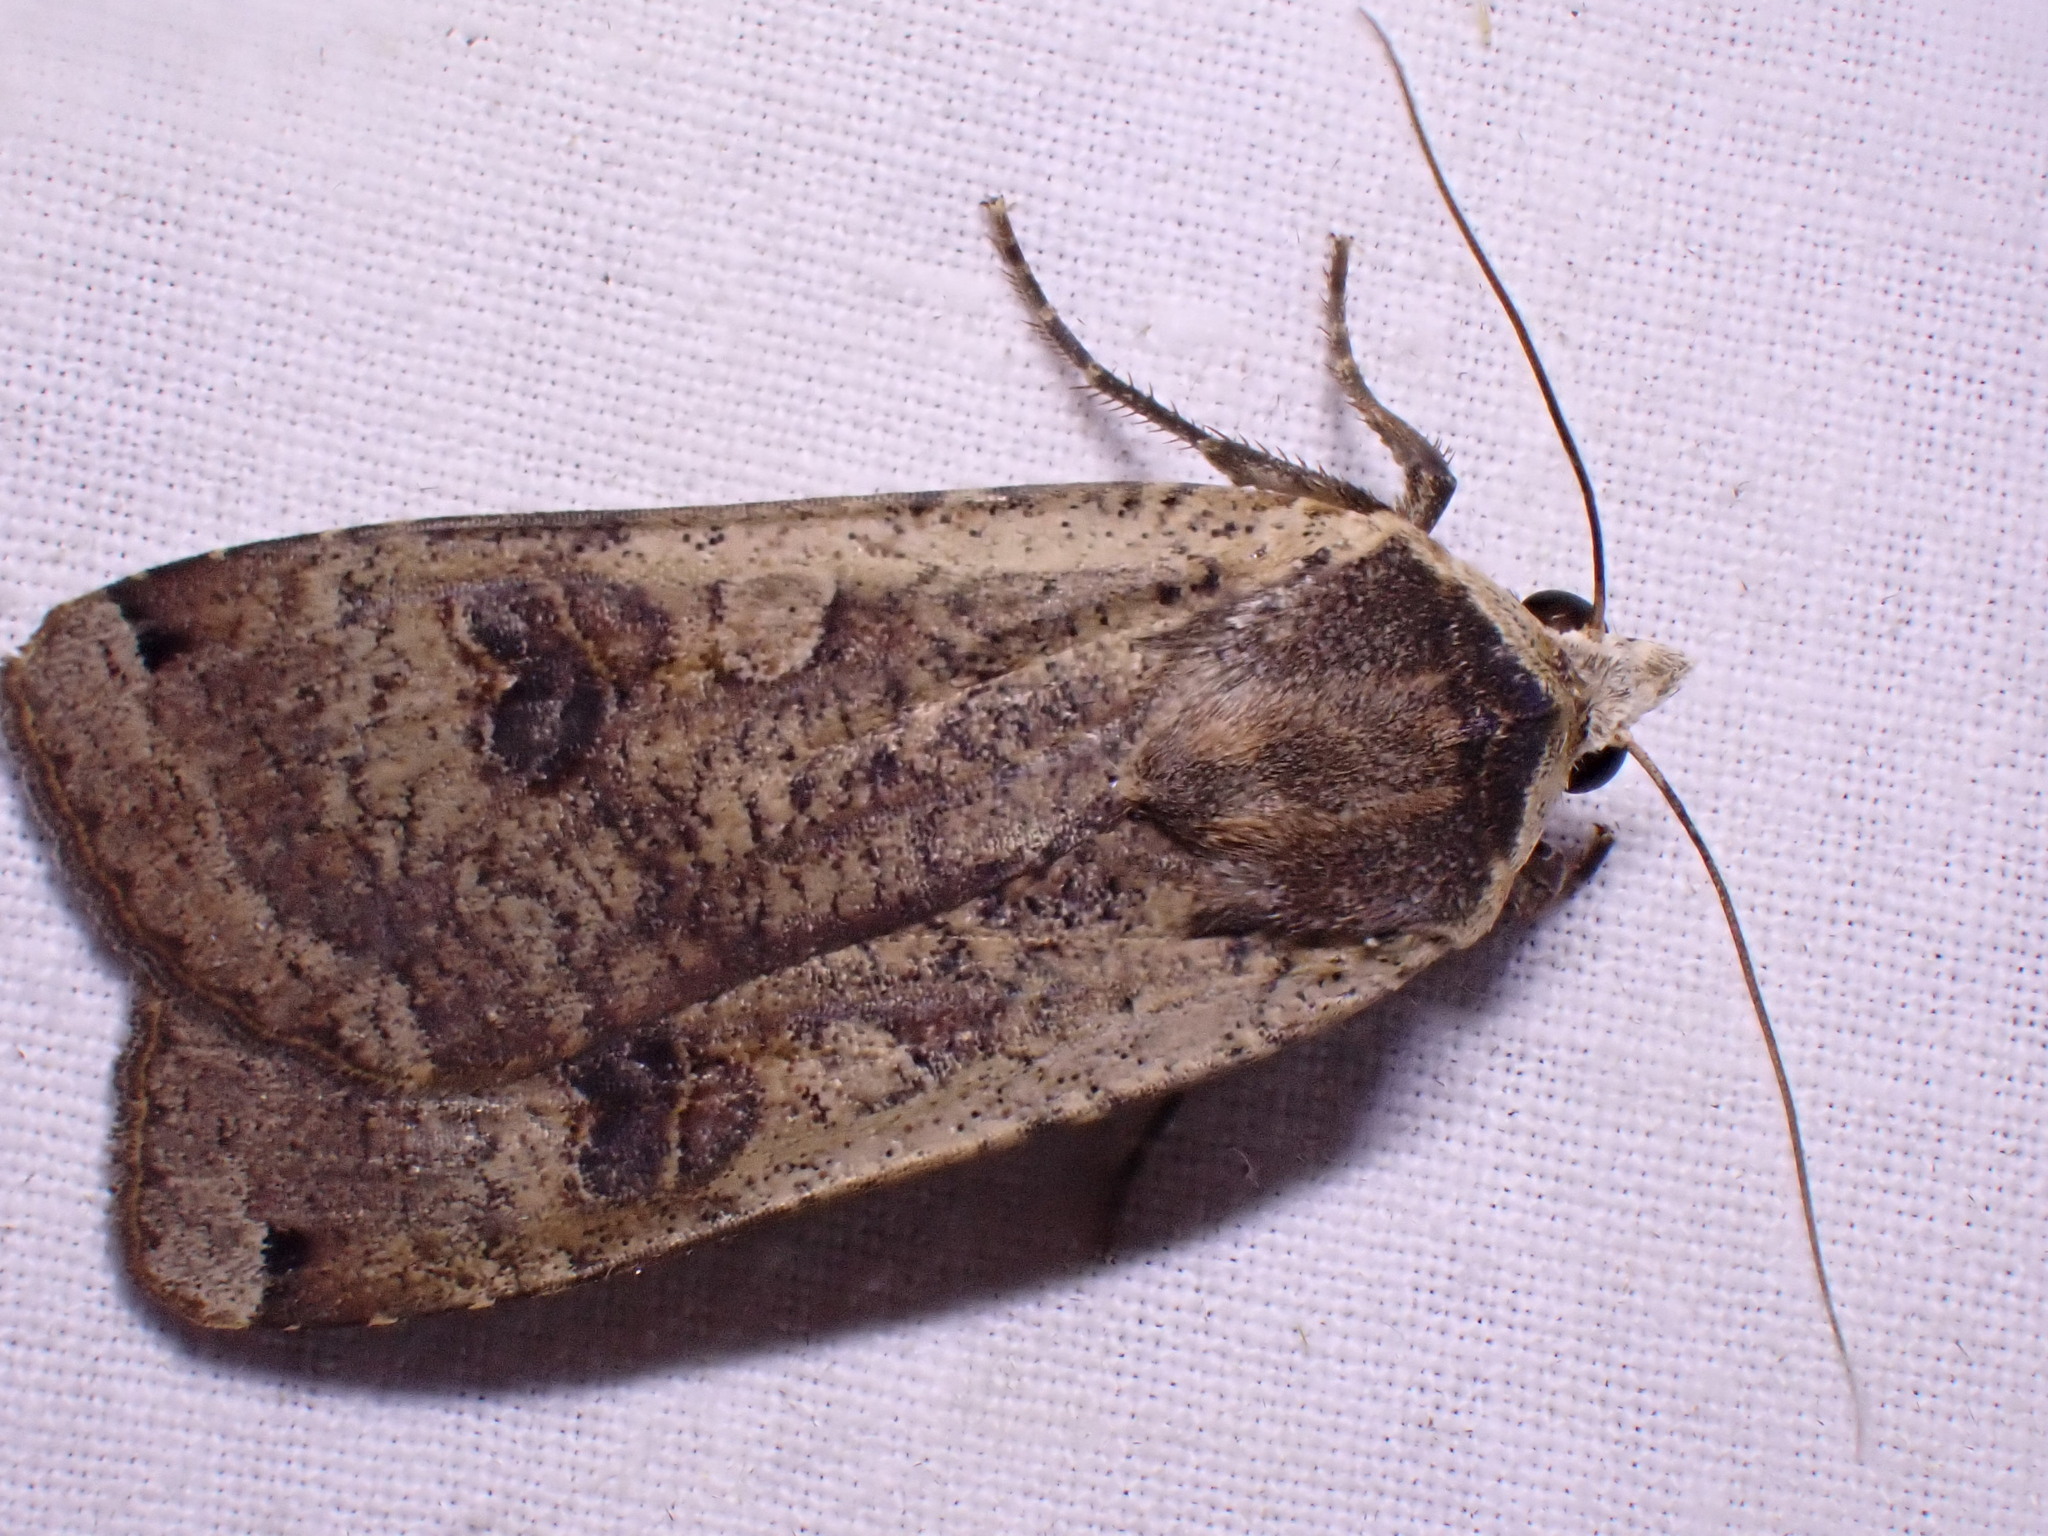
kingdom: Animalia
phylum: Arthropoda
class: Insecta
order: Lepidoptera
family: Noctuidae
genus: Noctua
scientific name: Noctua pronuba
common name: Large yellow underwing
